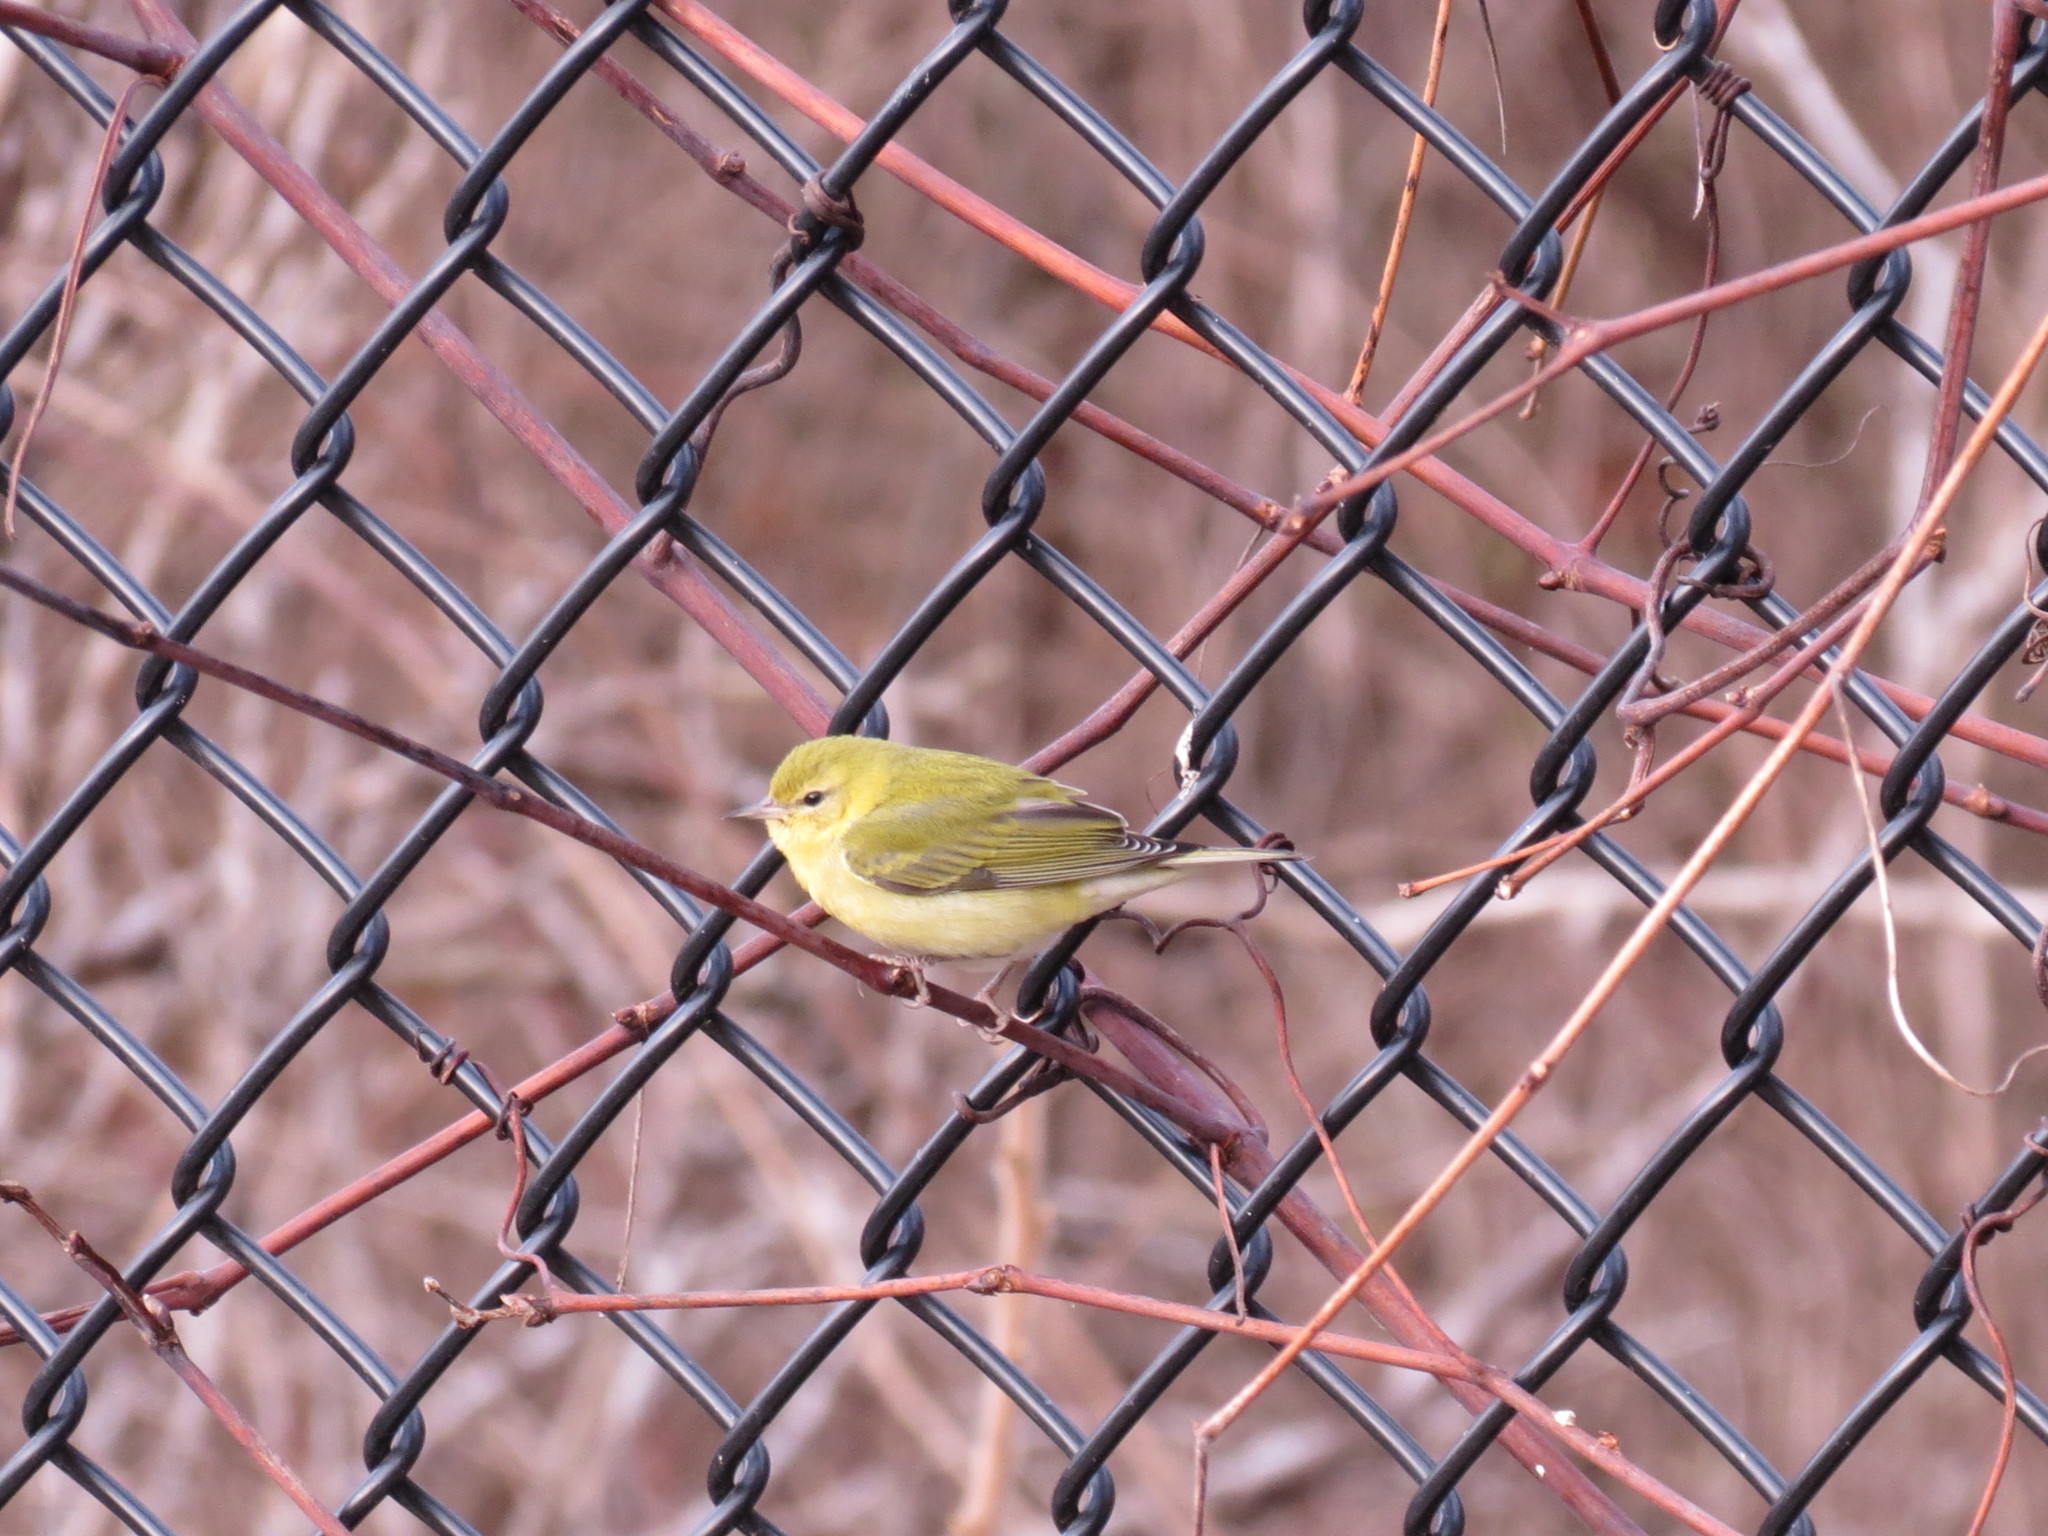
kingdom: Animalia
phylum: Chordata
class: Aves
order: Passeriformes
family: Parulidae
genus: Leiothlypis
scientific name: Leiothlypis peregrina
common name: Tennessee warbler
